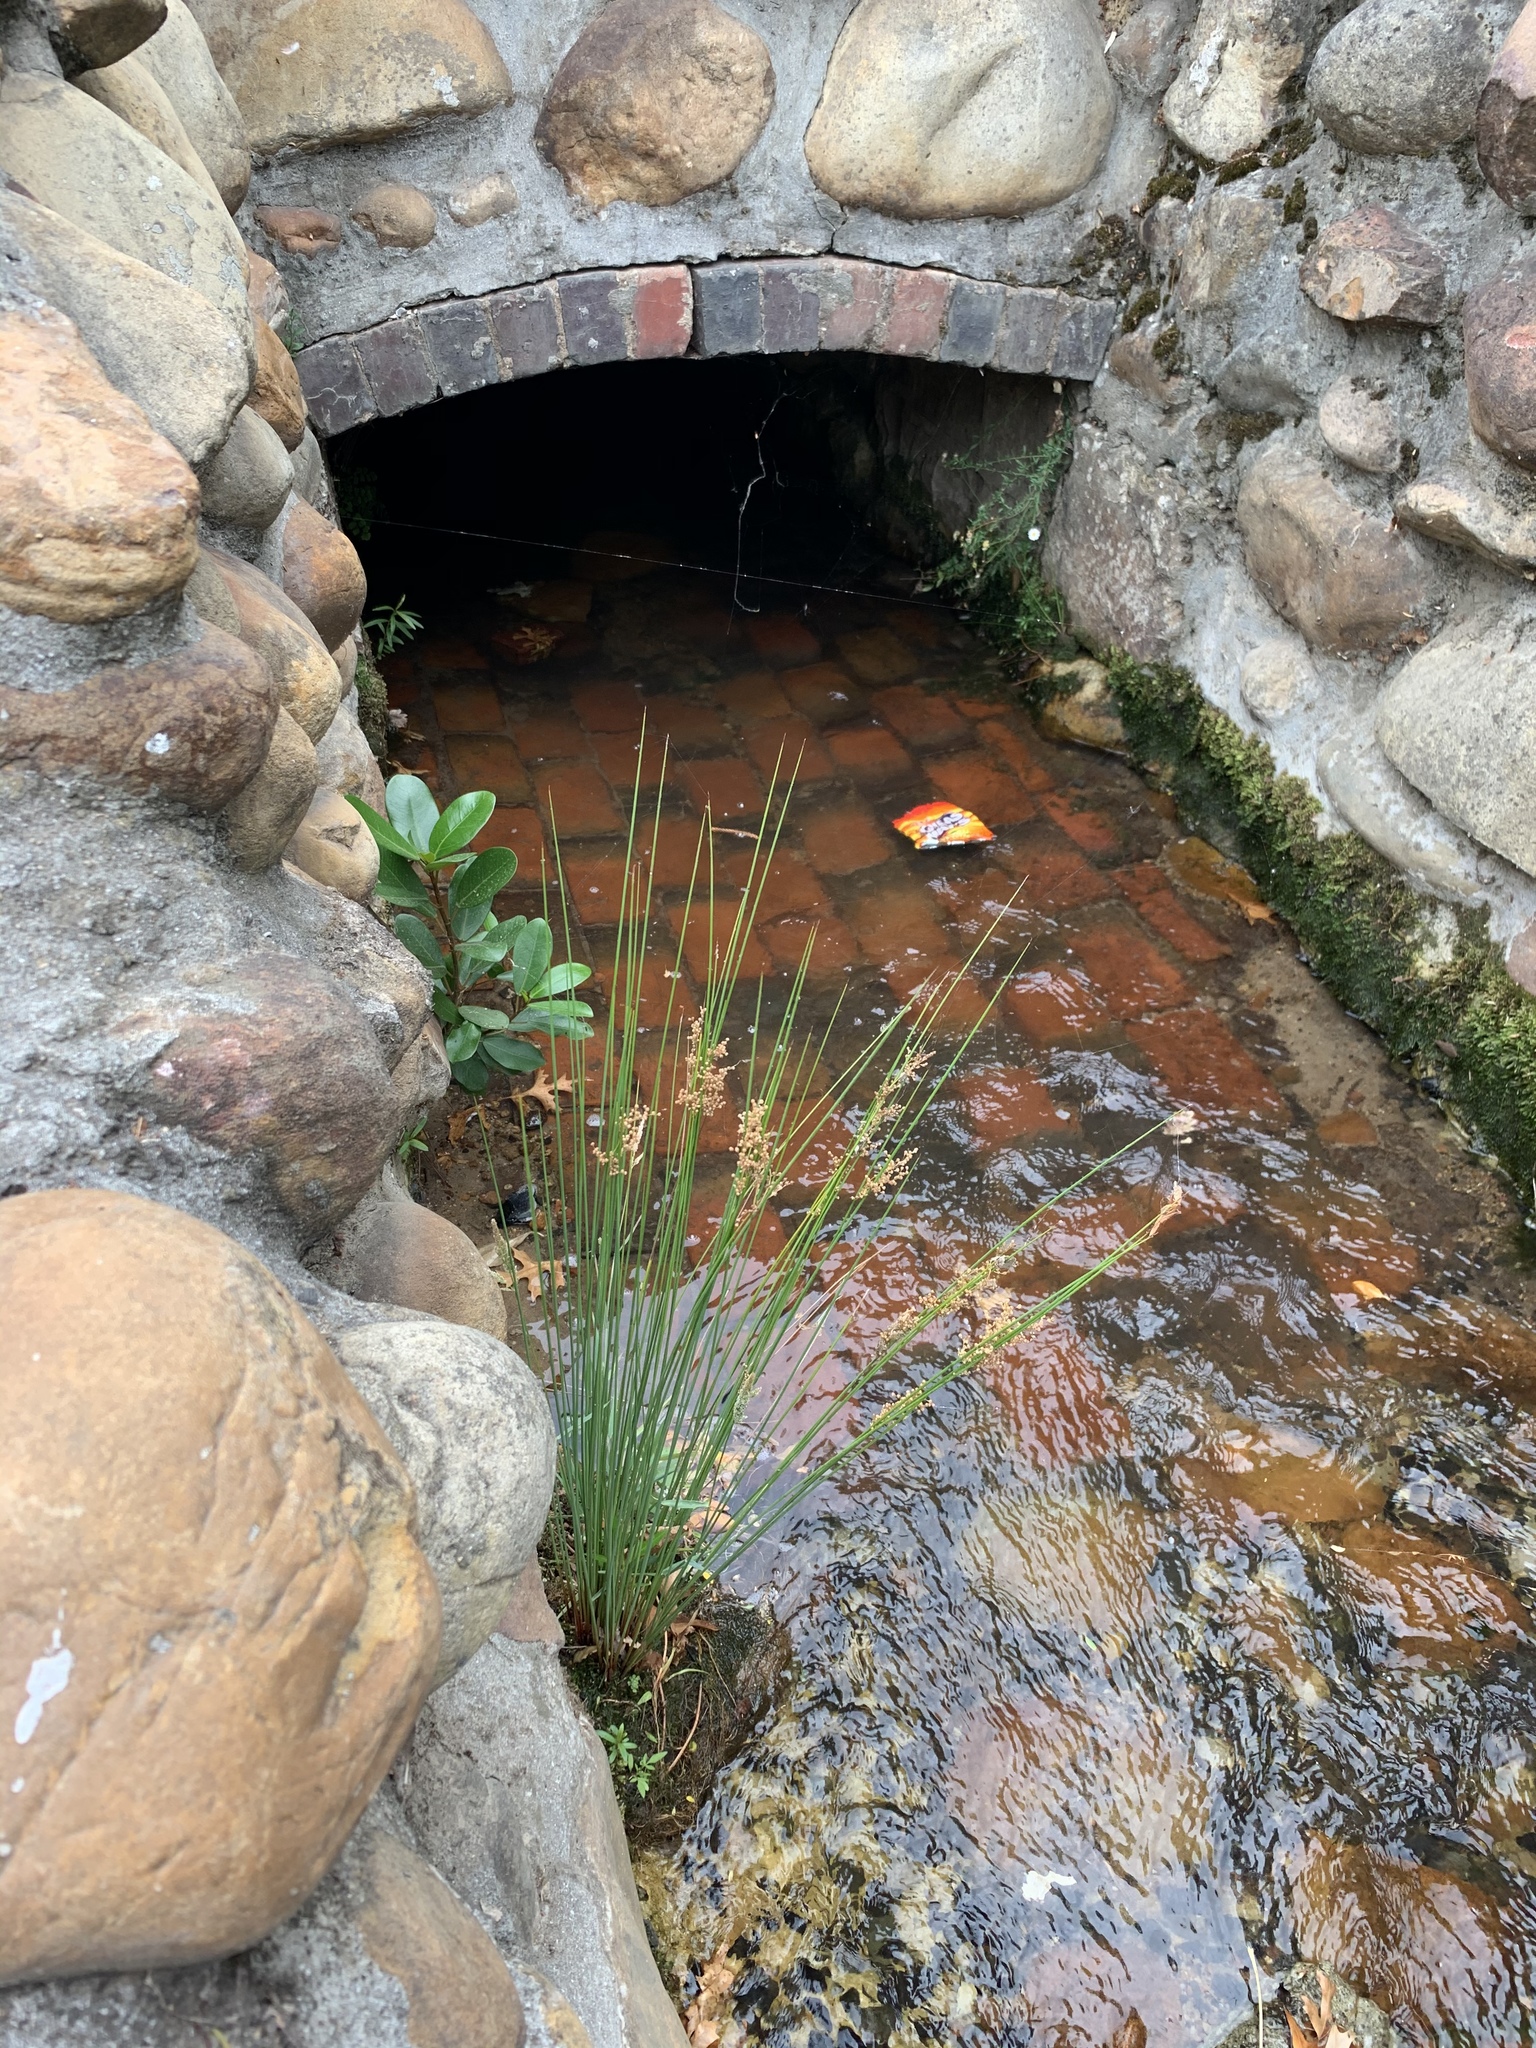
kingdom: Plantae
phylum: Tracheophyta
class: Liliopsida
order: Poales
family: Juncaceae
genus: Juncus
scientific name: Juncus effusus
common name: Soft rush
